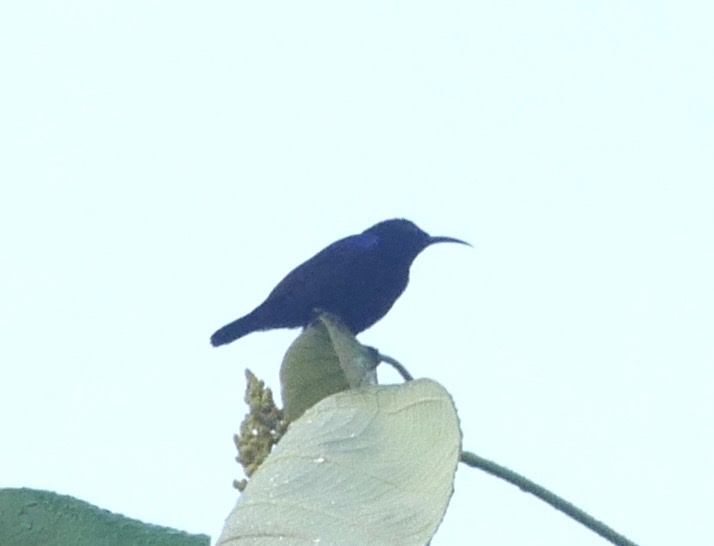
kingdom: Animalia
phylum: Chordata
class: Aves
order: Passeriformes
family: Nectariniidae
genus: Leptocoma
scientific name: Leptocoma sericea
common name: Black sunbird
